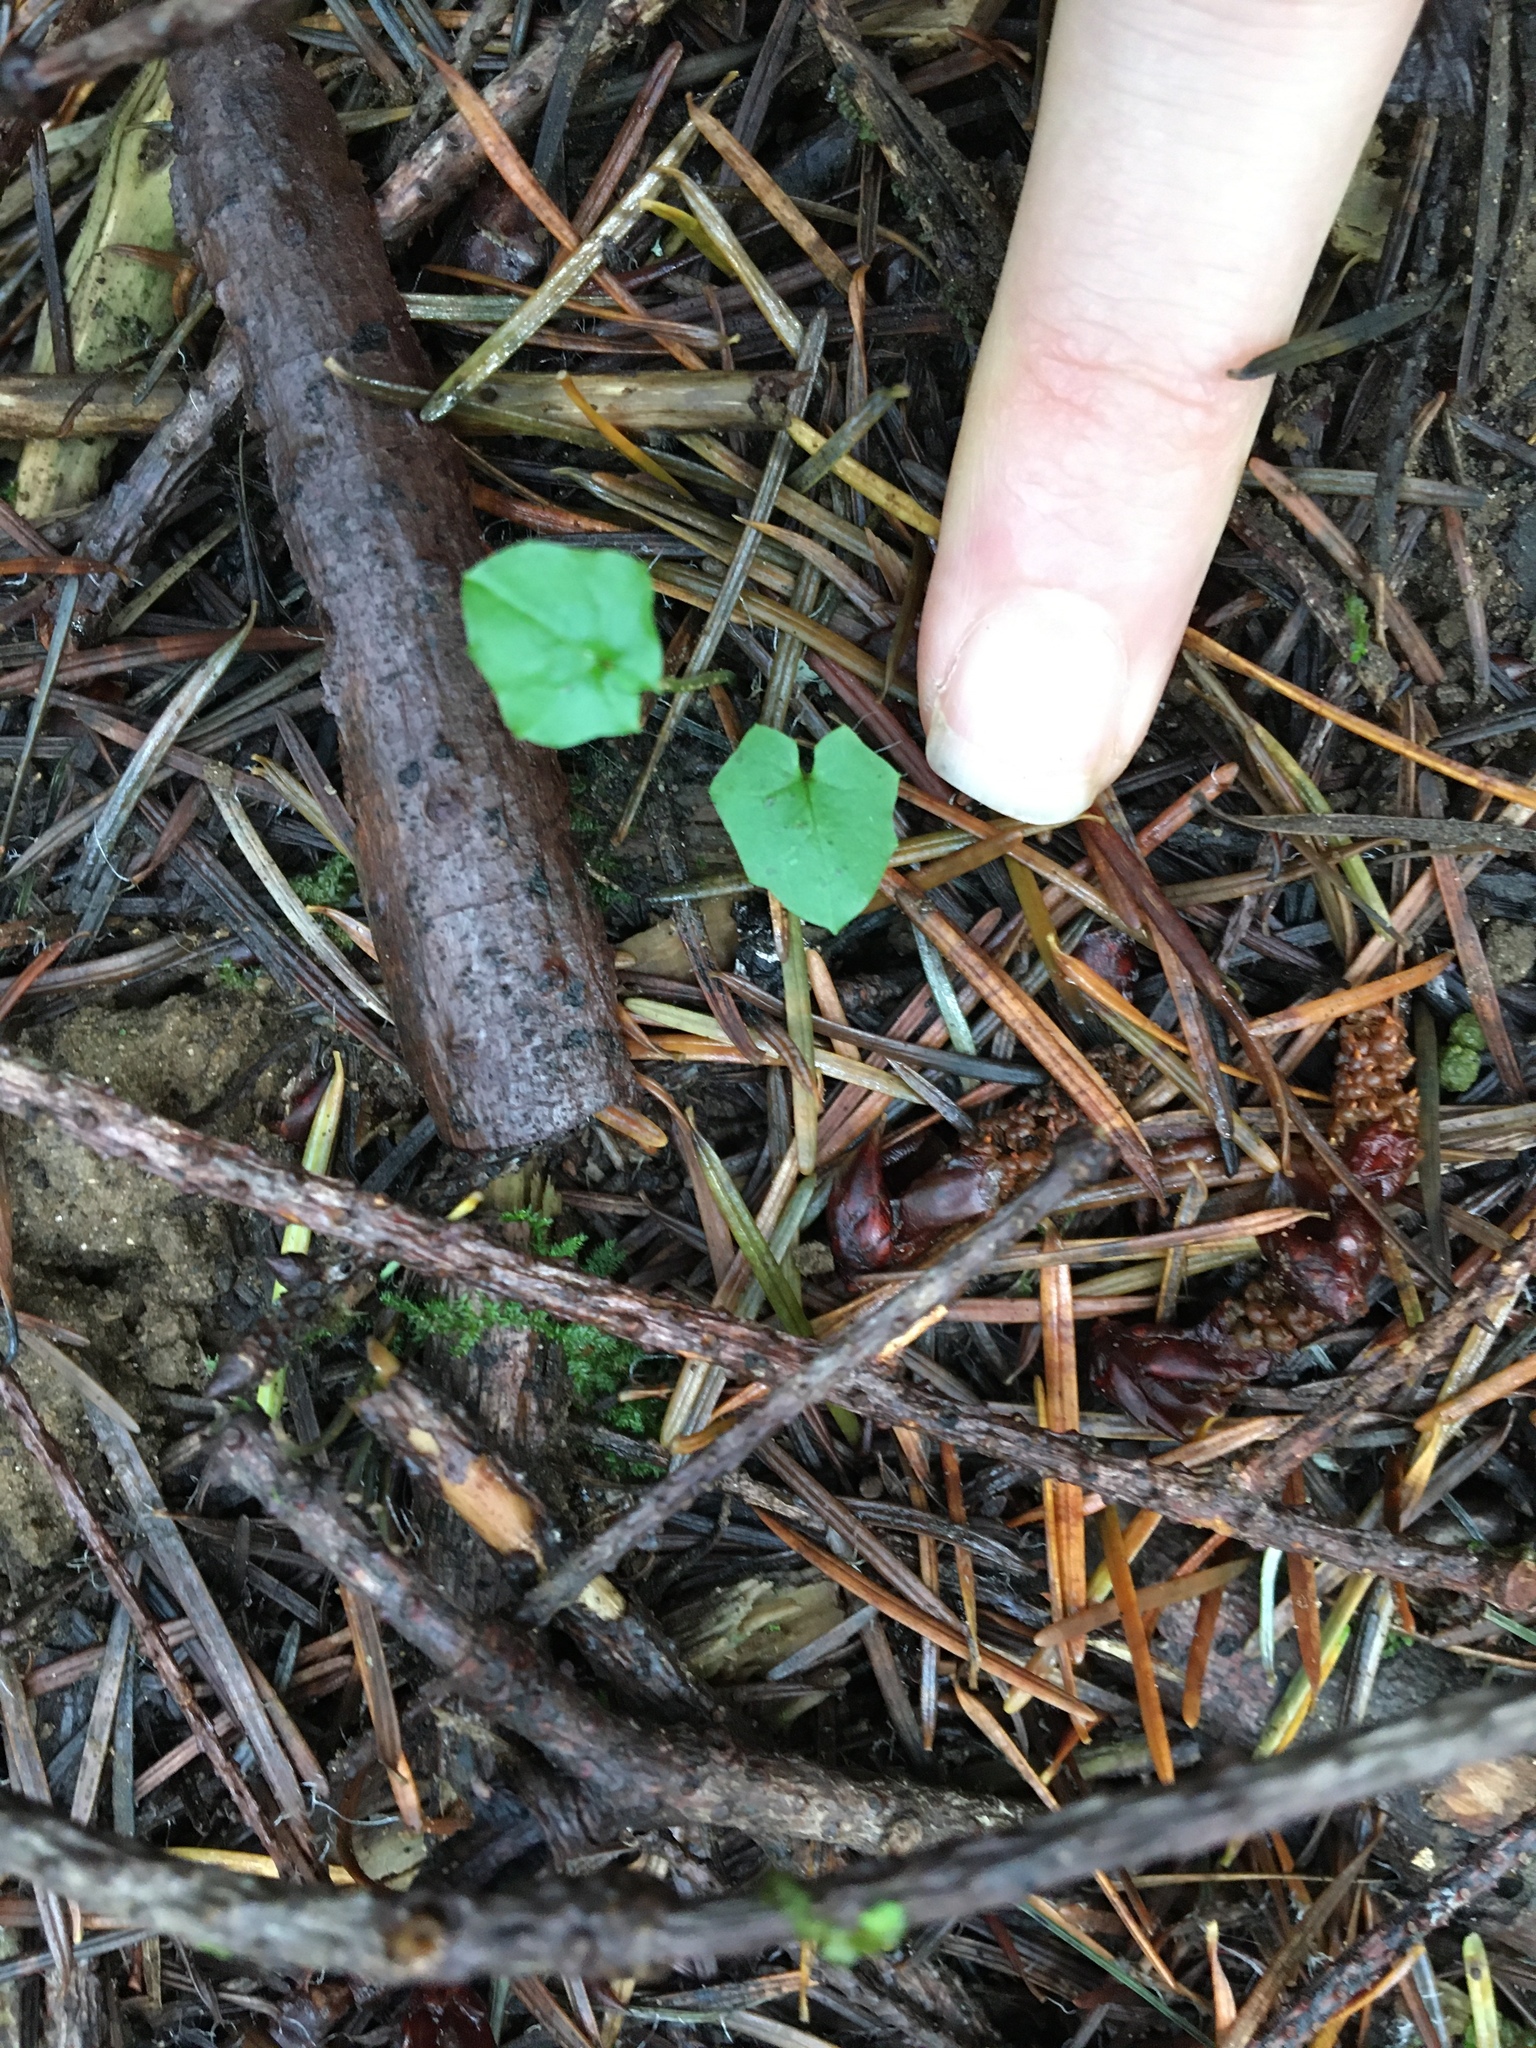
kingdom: Plantae
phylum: Tracheophyta
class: Magnoliopsida
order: Asterales
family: Asteraceae
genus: Mycelis
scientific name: Mycelis muralis
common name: Wall lettuce
